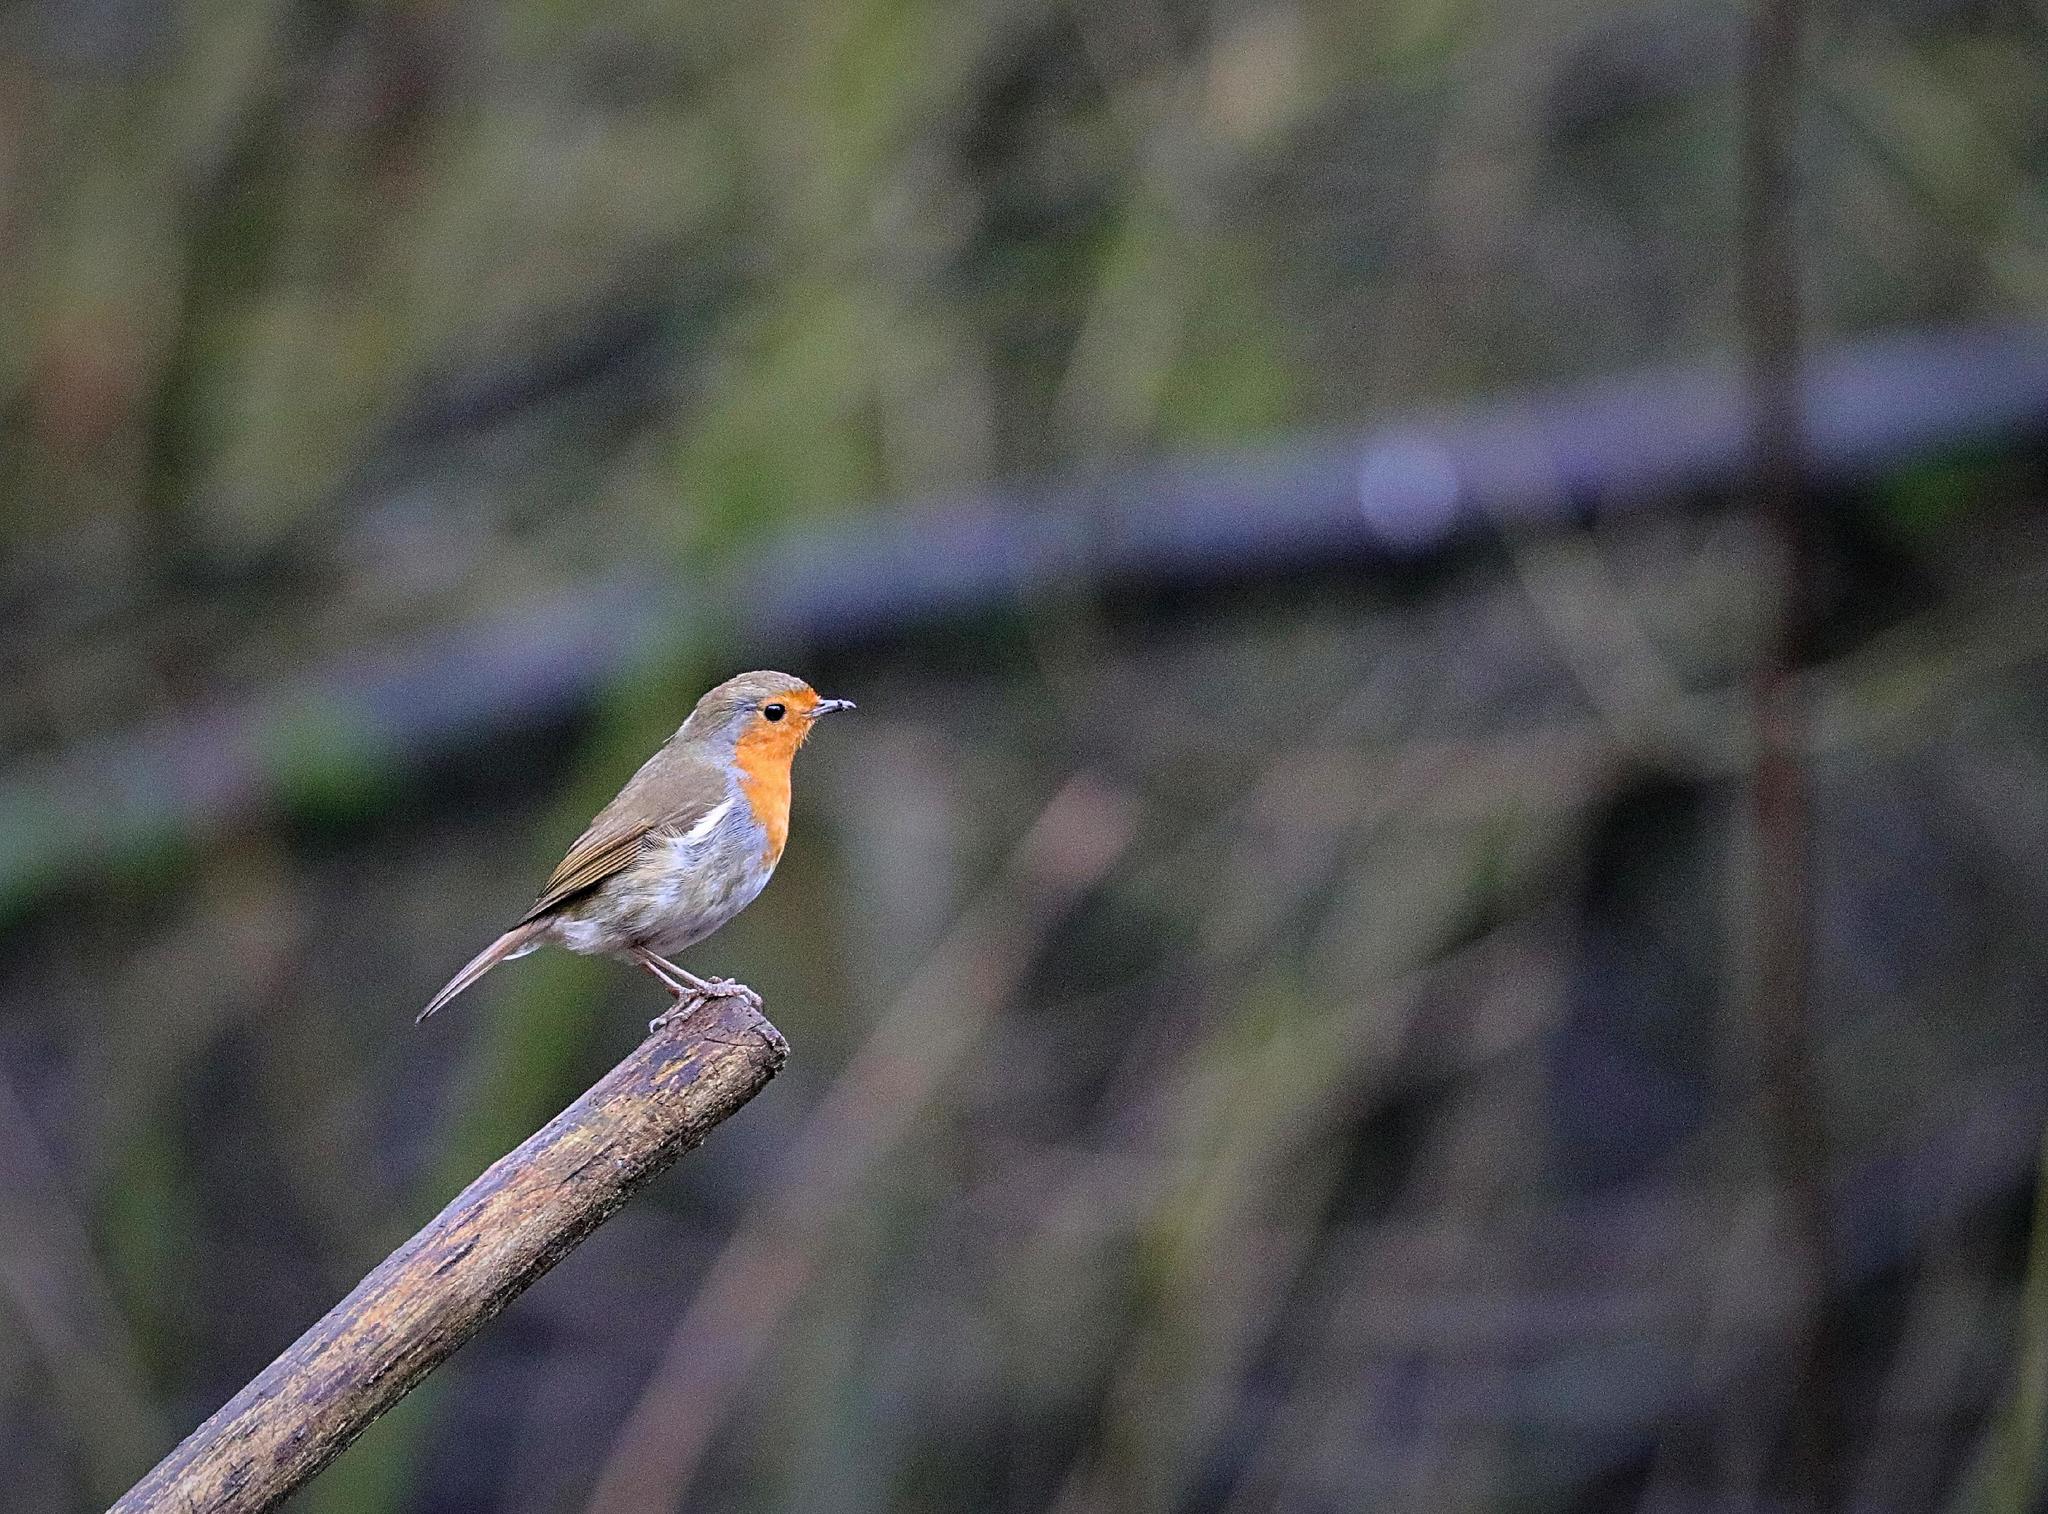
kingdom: Animalia
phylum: Chordata
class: Aves
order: Passeriformes
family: Muscicapidae
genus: Erithacus
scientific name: Erithacus rubecula
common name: European robin
